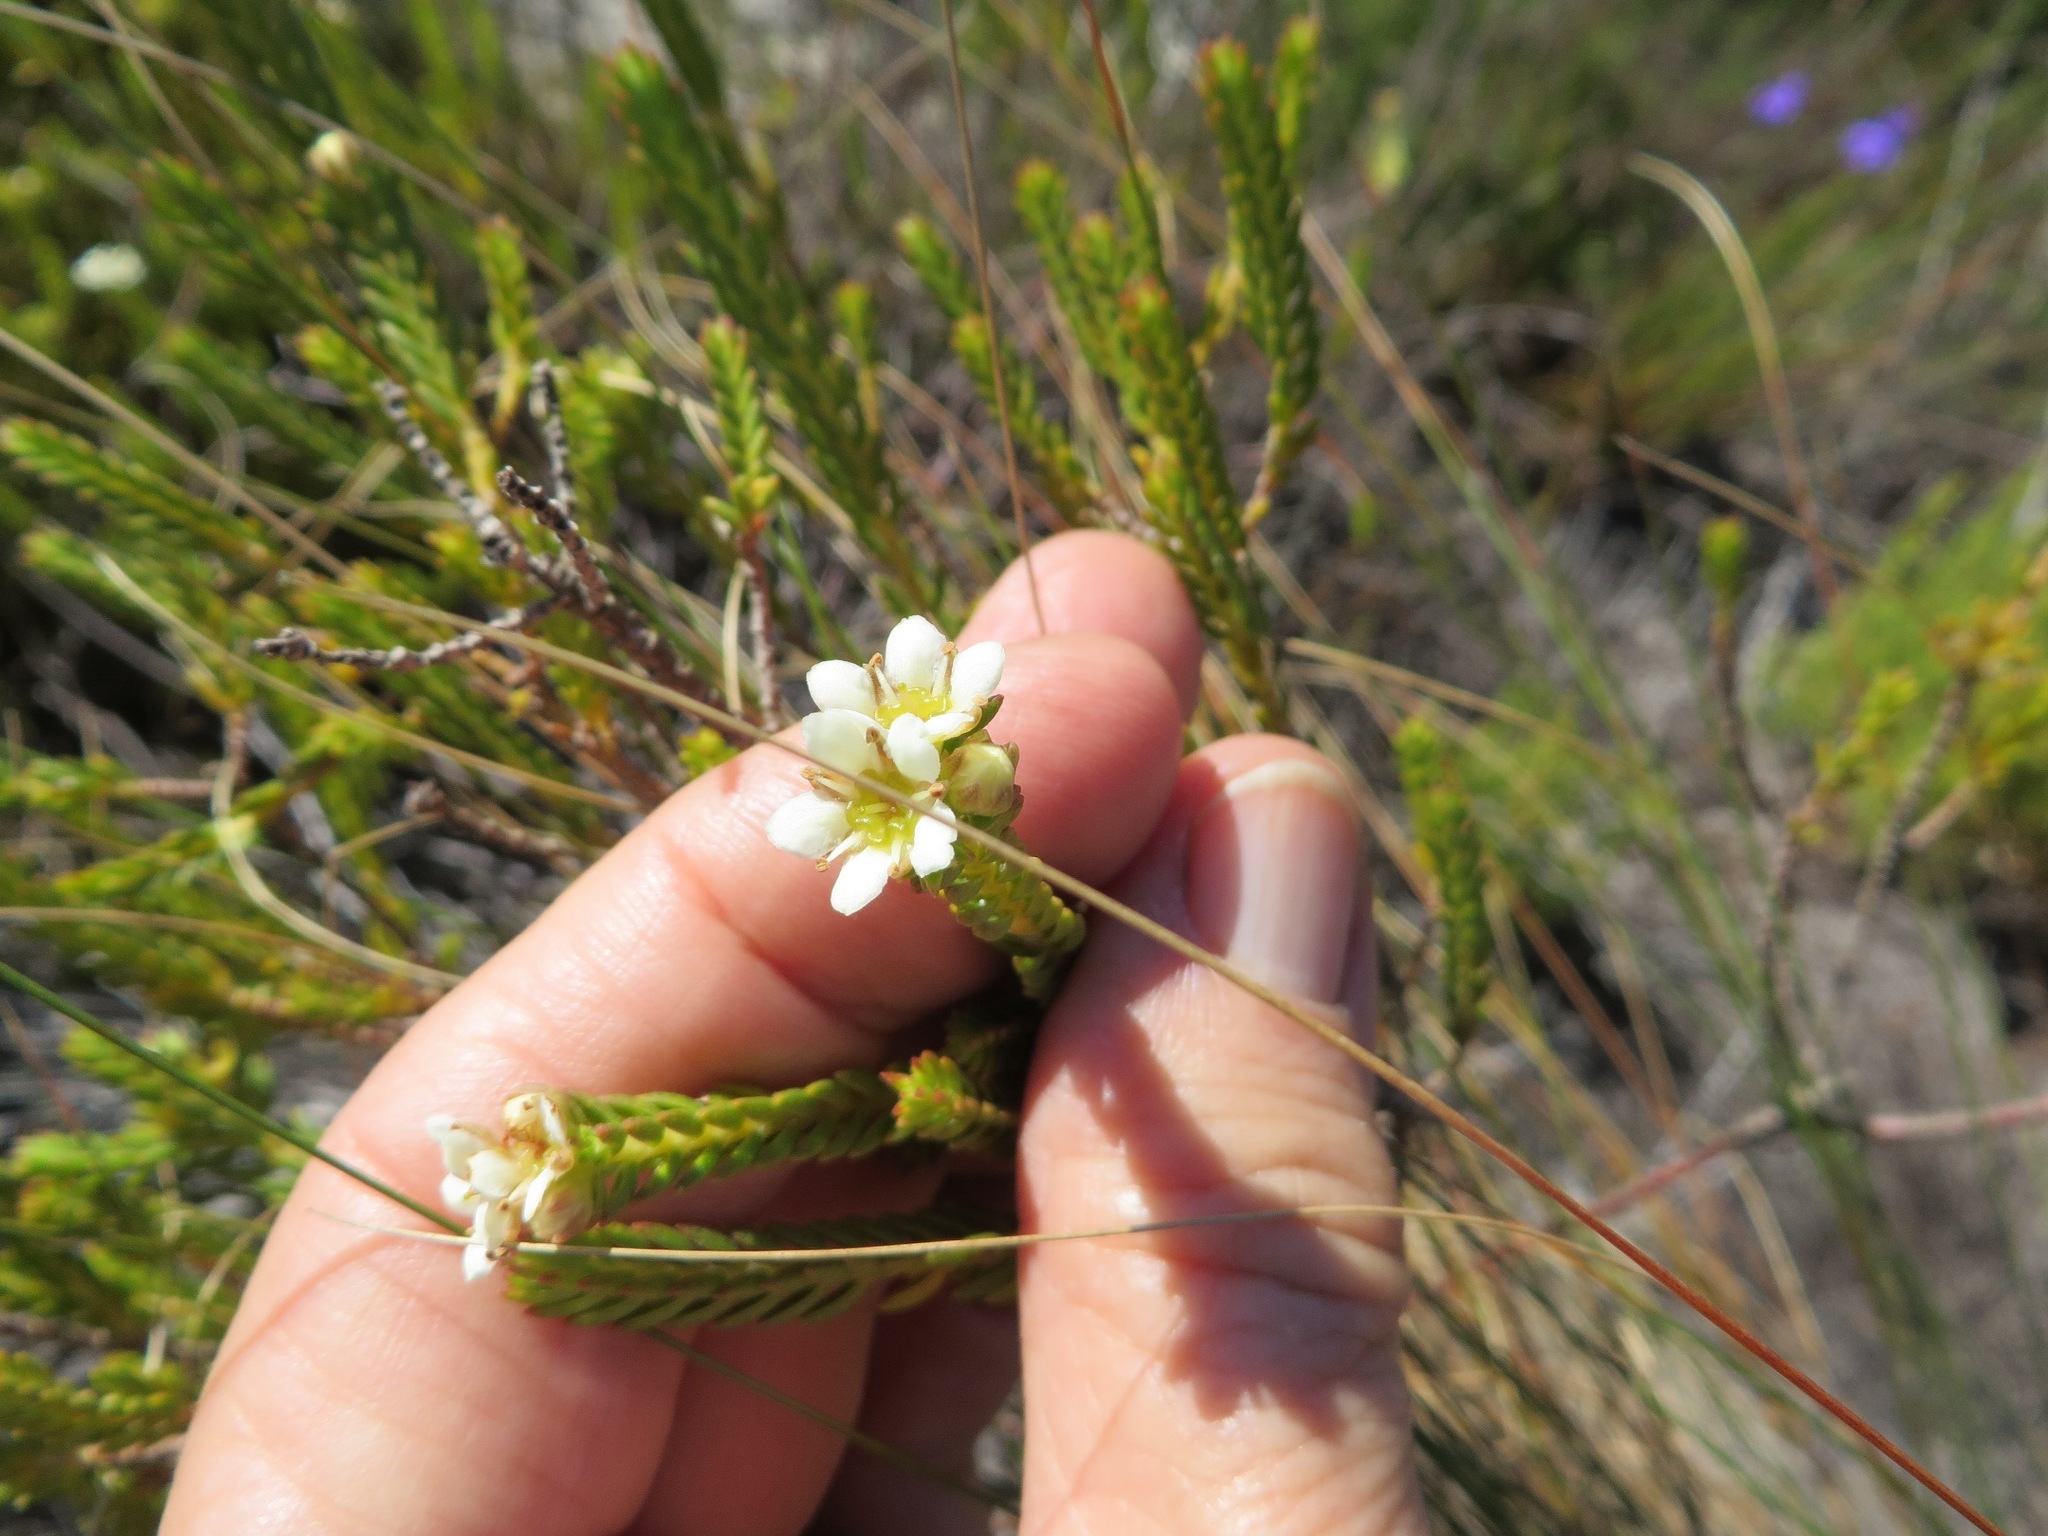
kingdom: Plantae
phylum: Tracheophyta
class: Magnoliopsida
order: Sapindales
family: Rutaceae
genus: Diosma
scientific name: Diosma oppositifolia
